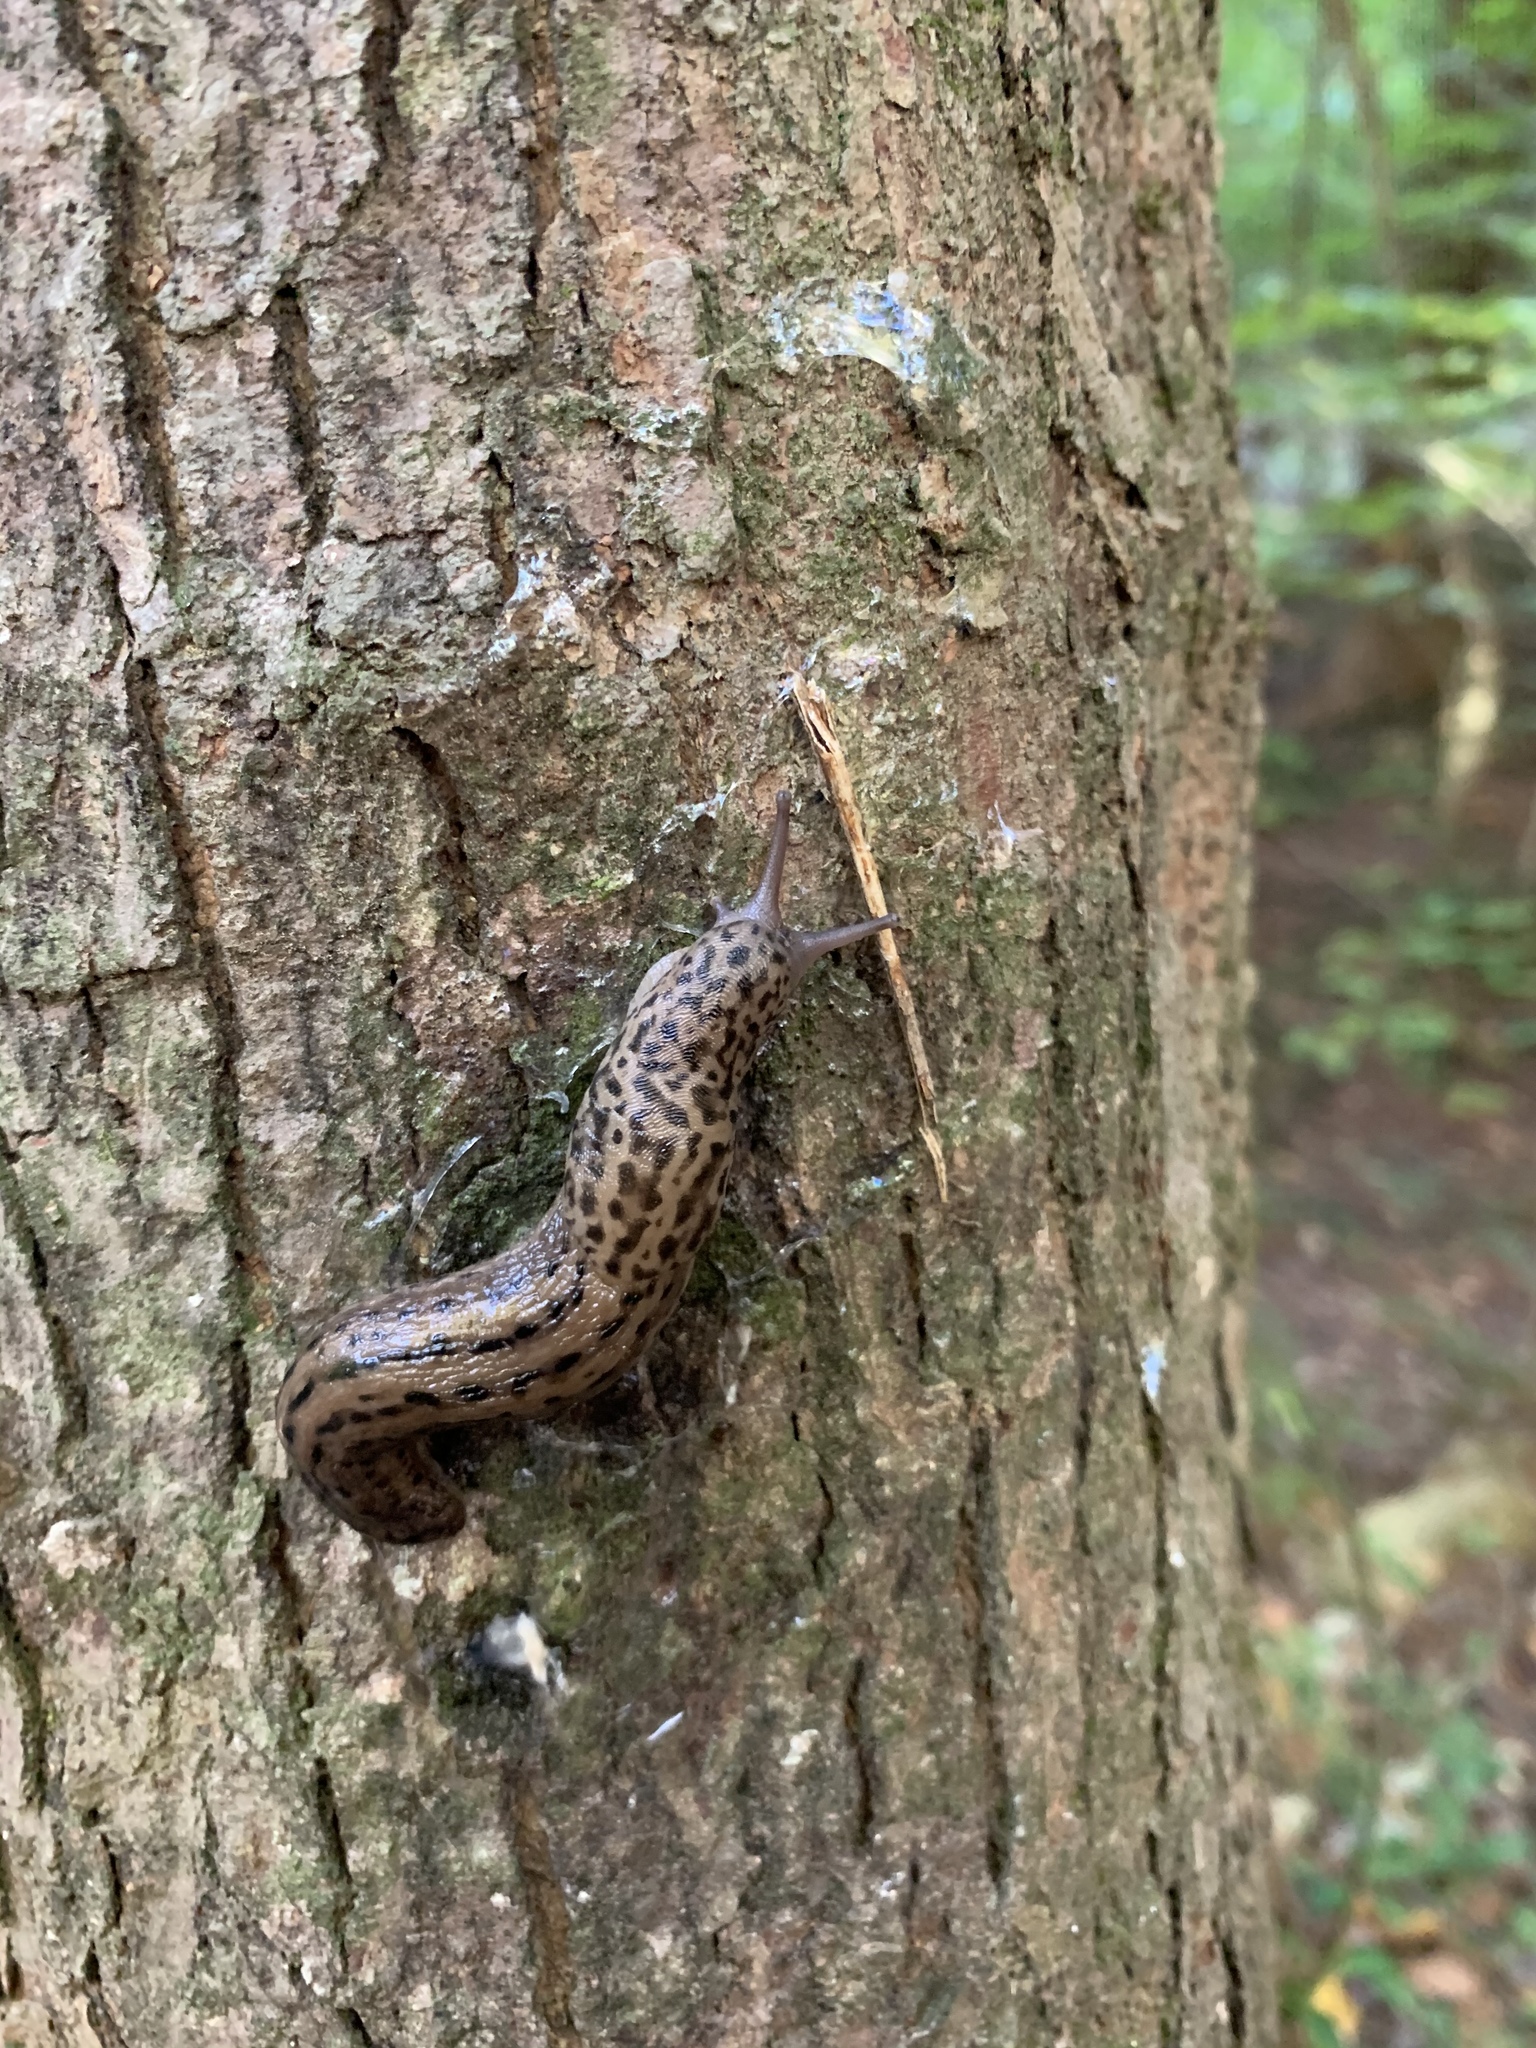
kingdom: Animalia
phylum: Mollusca
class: Gastropoda
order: Stylommatophora
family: Limacidae
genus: Limax
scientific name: Limax maximus
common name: Great grey slug
